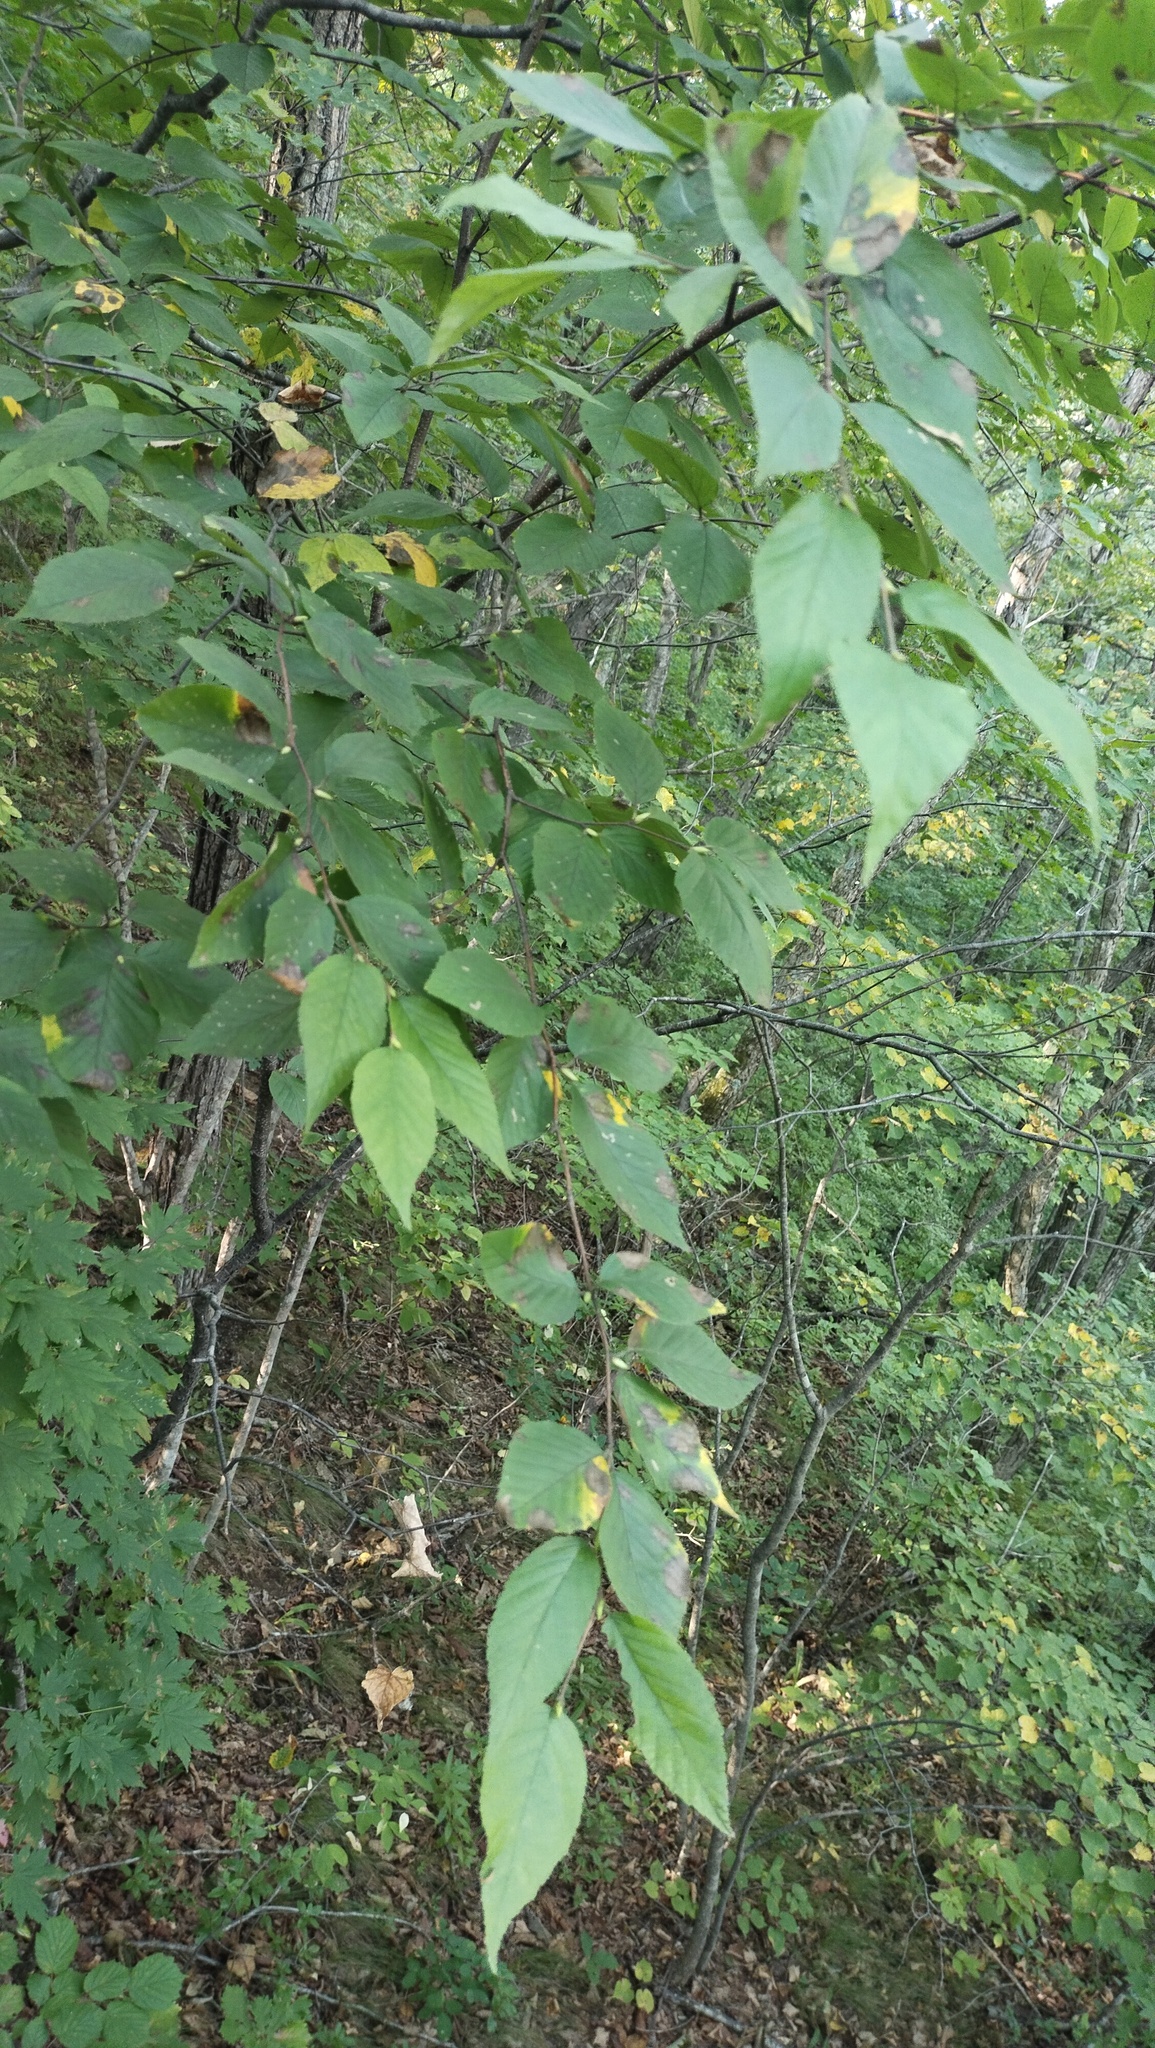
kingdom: Plantae
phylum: Tracheophyta
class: Magnoliopsida
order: Fagales
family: Betulaceae
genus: Betula
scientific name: Betula schmidtii
